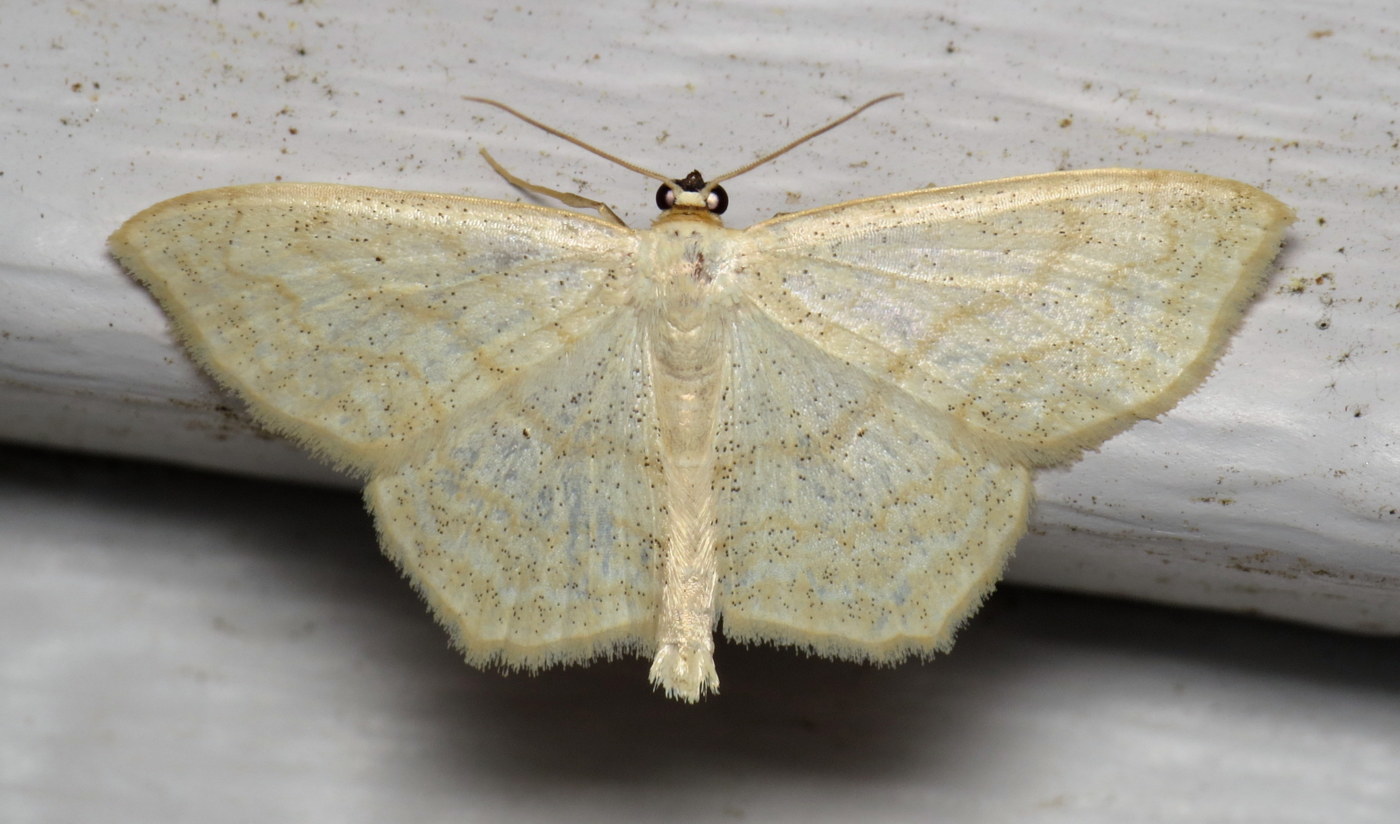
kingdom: Animalia
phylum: Arthropoda
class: Insecta
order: Lepidoptera
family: Geometridae
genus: Scopula
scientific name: Scopula limboundata
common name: Large lace border
